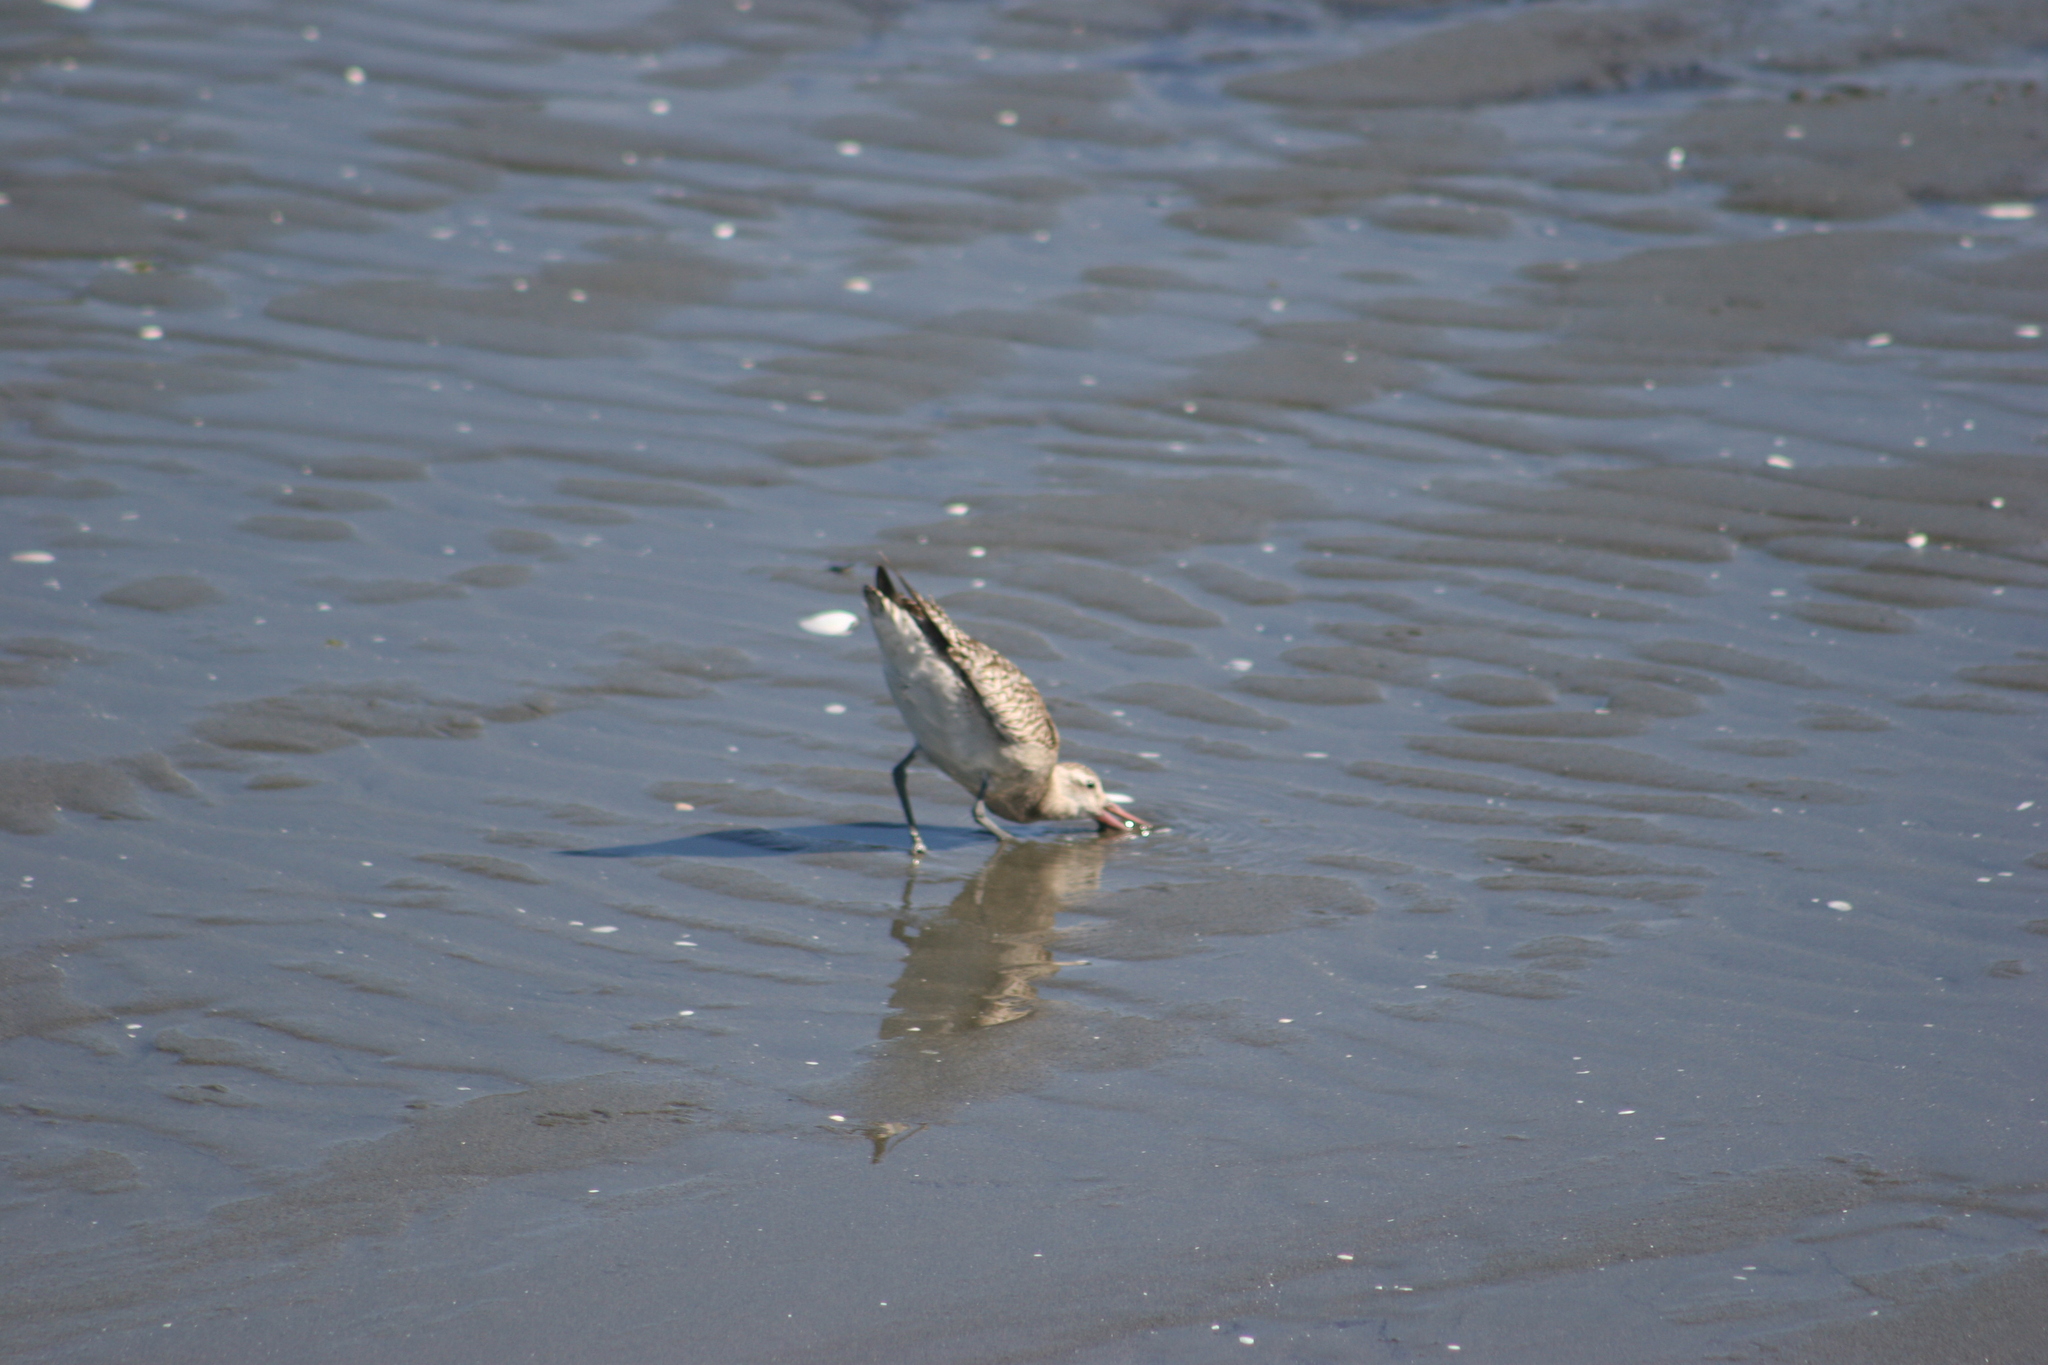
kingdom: Animalia
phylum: Chordata
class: Aves
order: Charadriiformes
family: Scolopacidae
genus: Limosa
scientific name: Limosa lapponica
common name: Bar-tailed godwit
